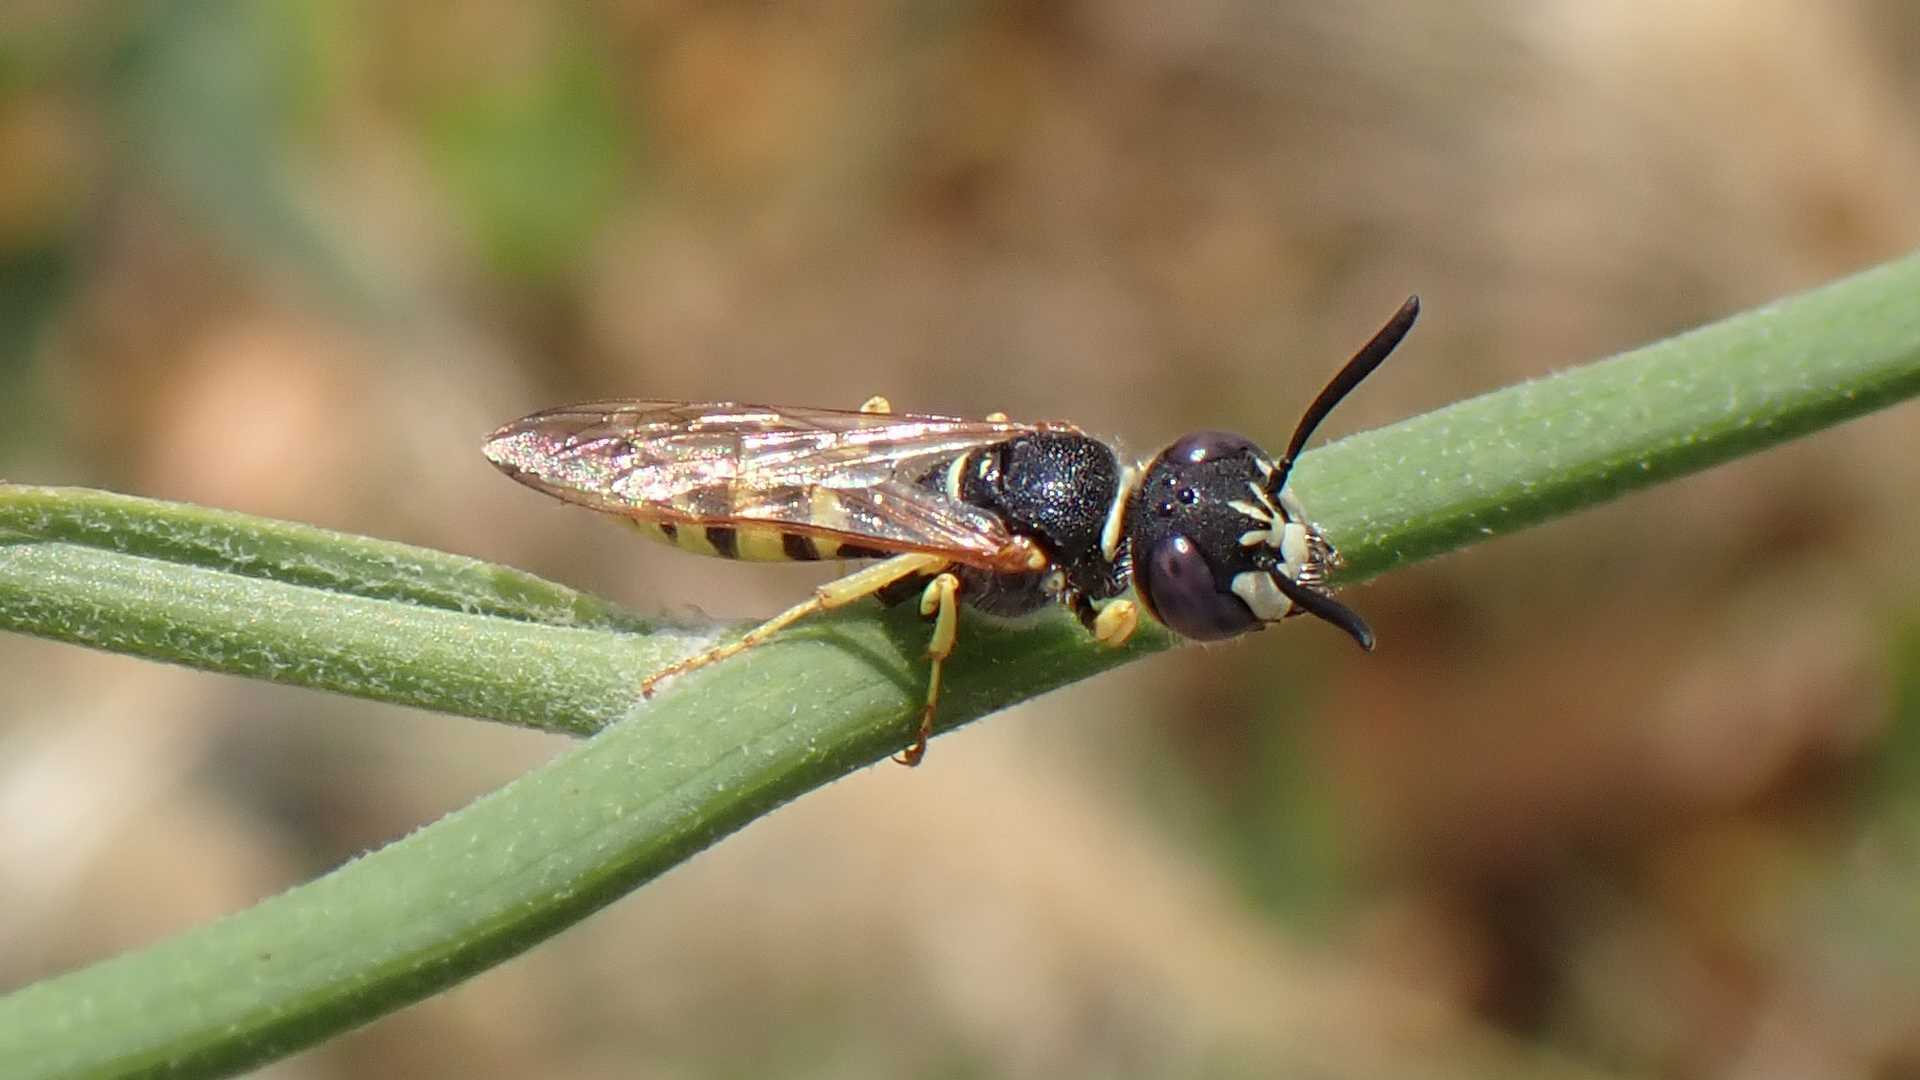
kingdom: Animalia
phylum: Arthropoda
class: Insecta
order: Hymenoptera
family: Crabronidae
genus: Philanthus
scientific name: Philanthus triangulum
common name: Bee wolf
